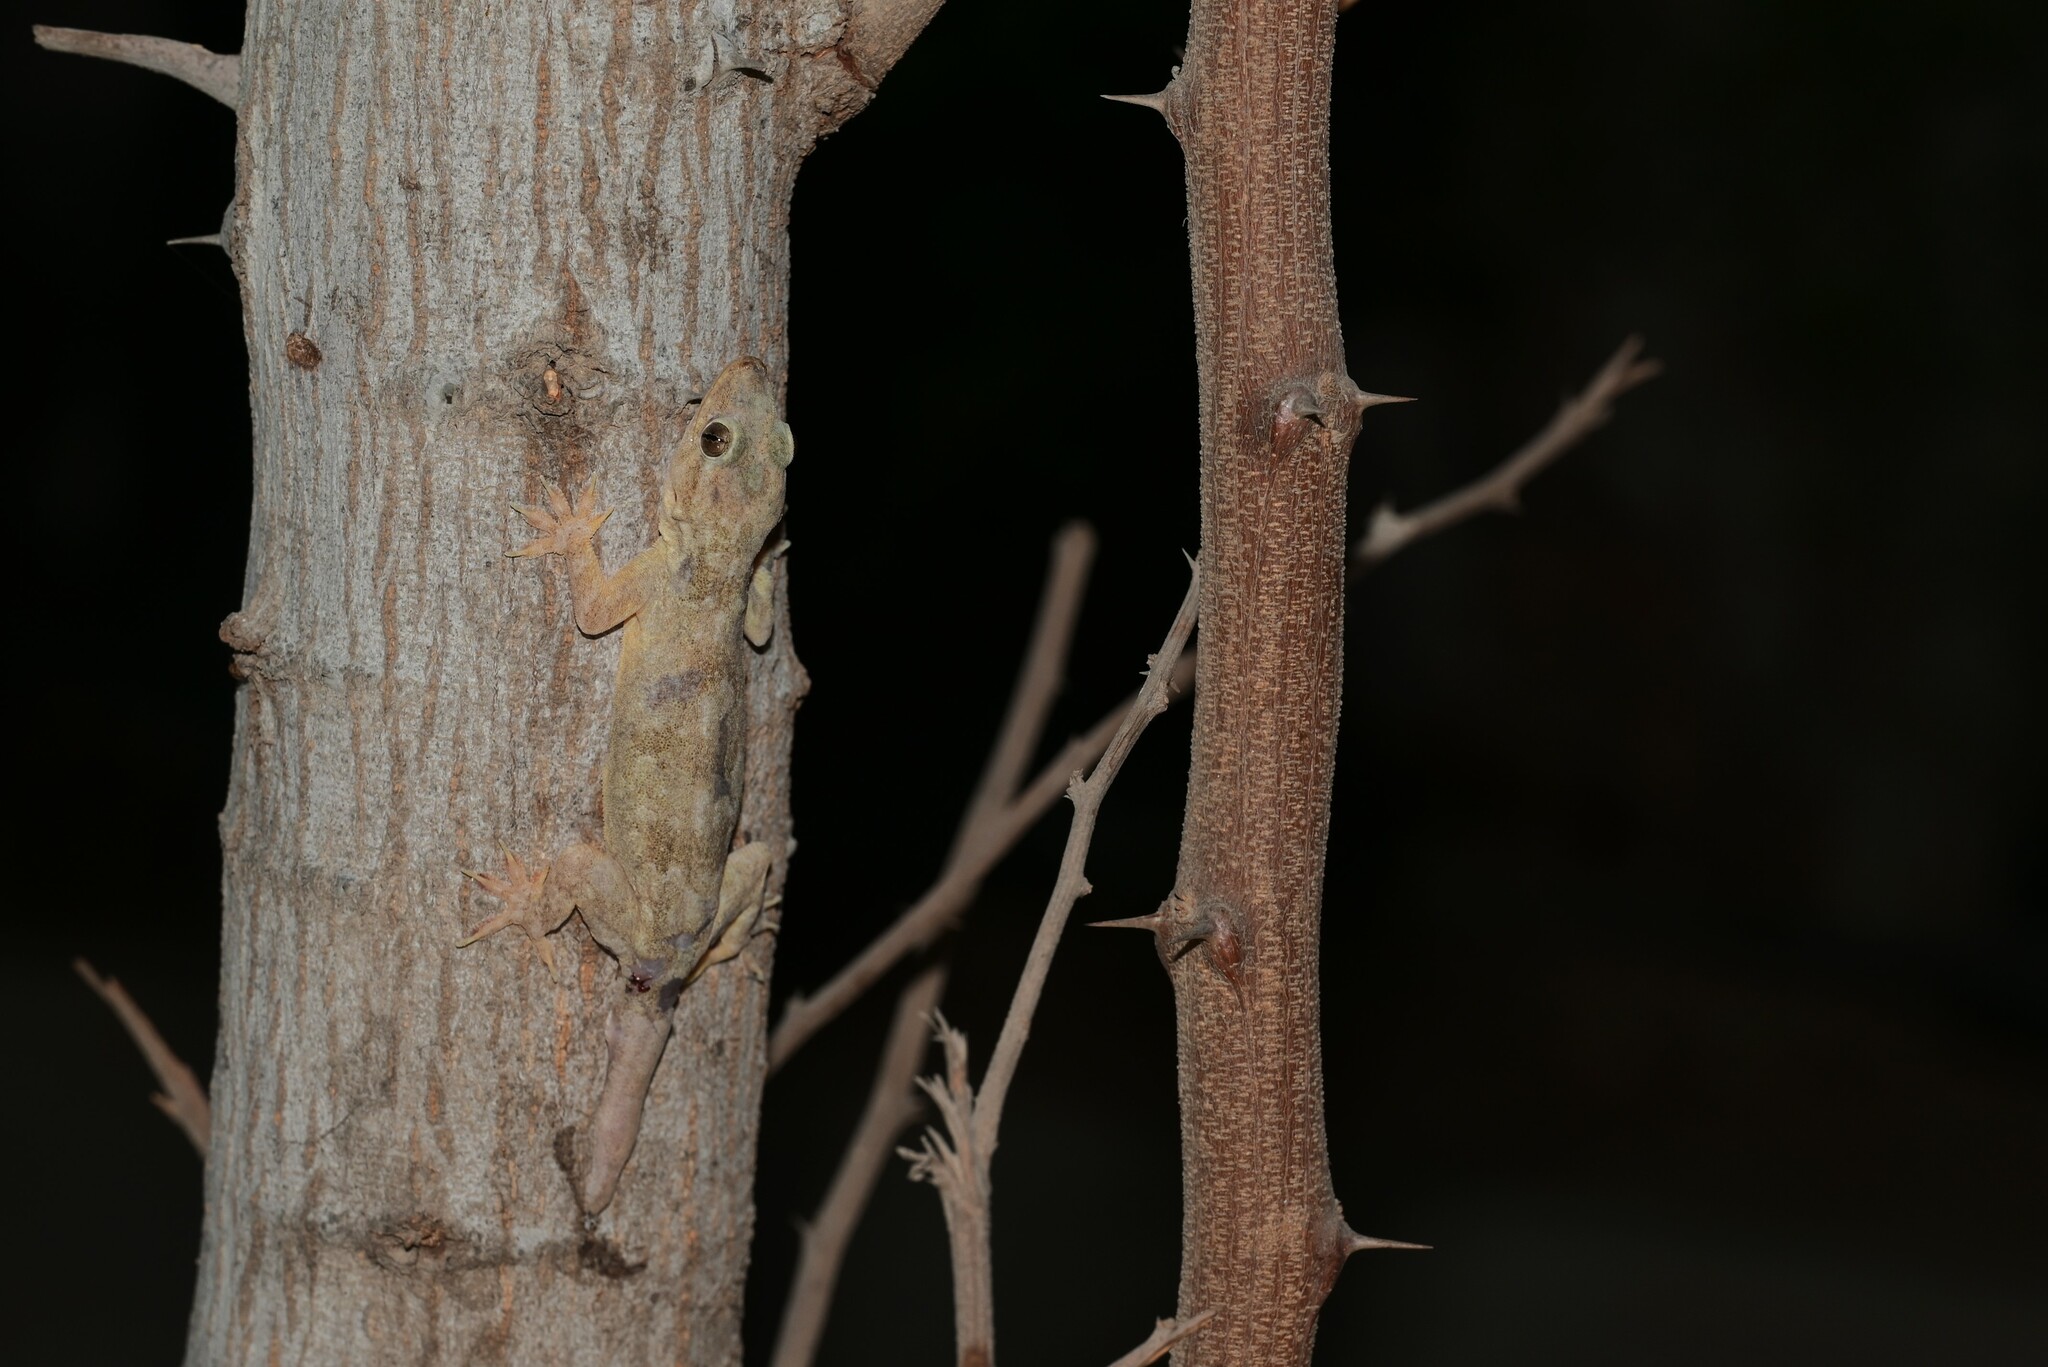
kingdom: Animalia
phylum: Chordata
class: Squamata
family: Gekkonidae
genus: Hemidactylus
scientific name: Hemidactylus flaviviridis
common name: Northern house gecko
